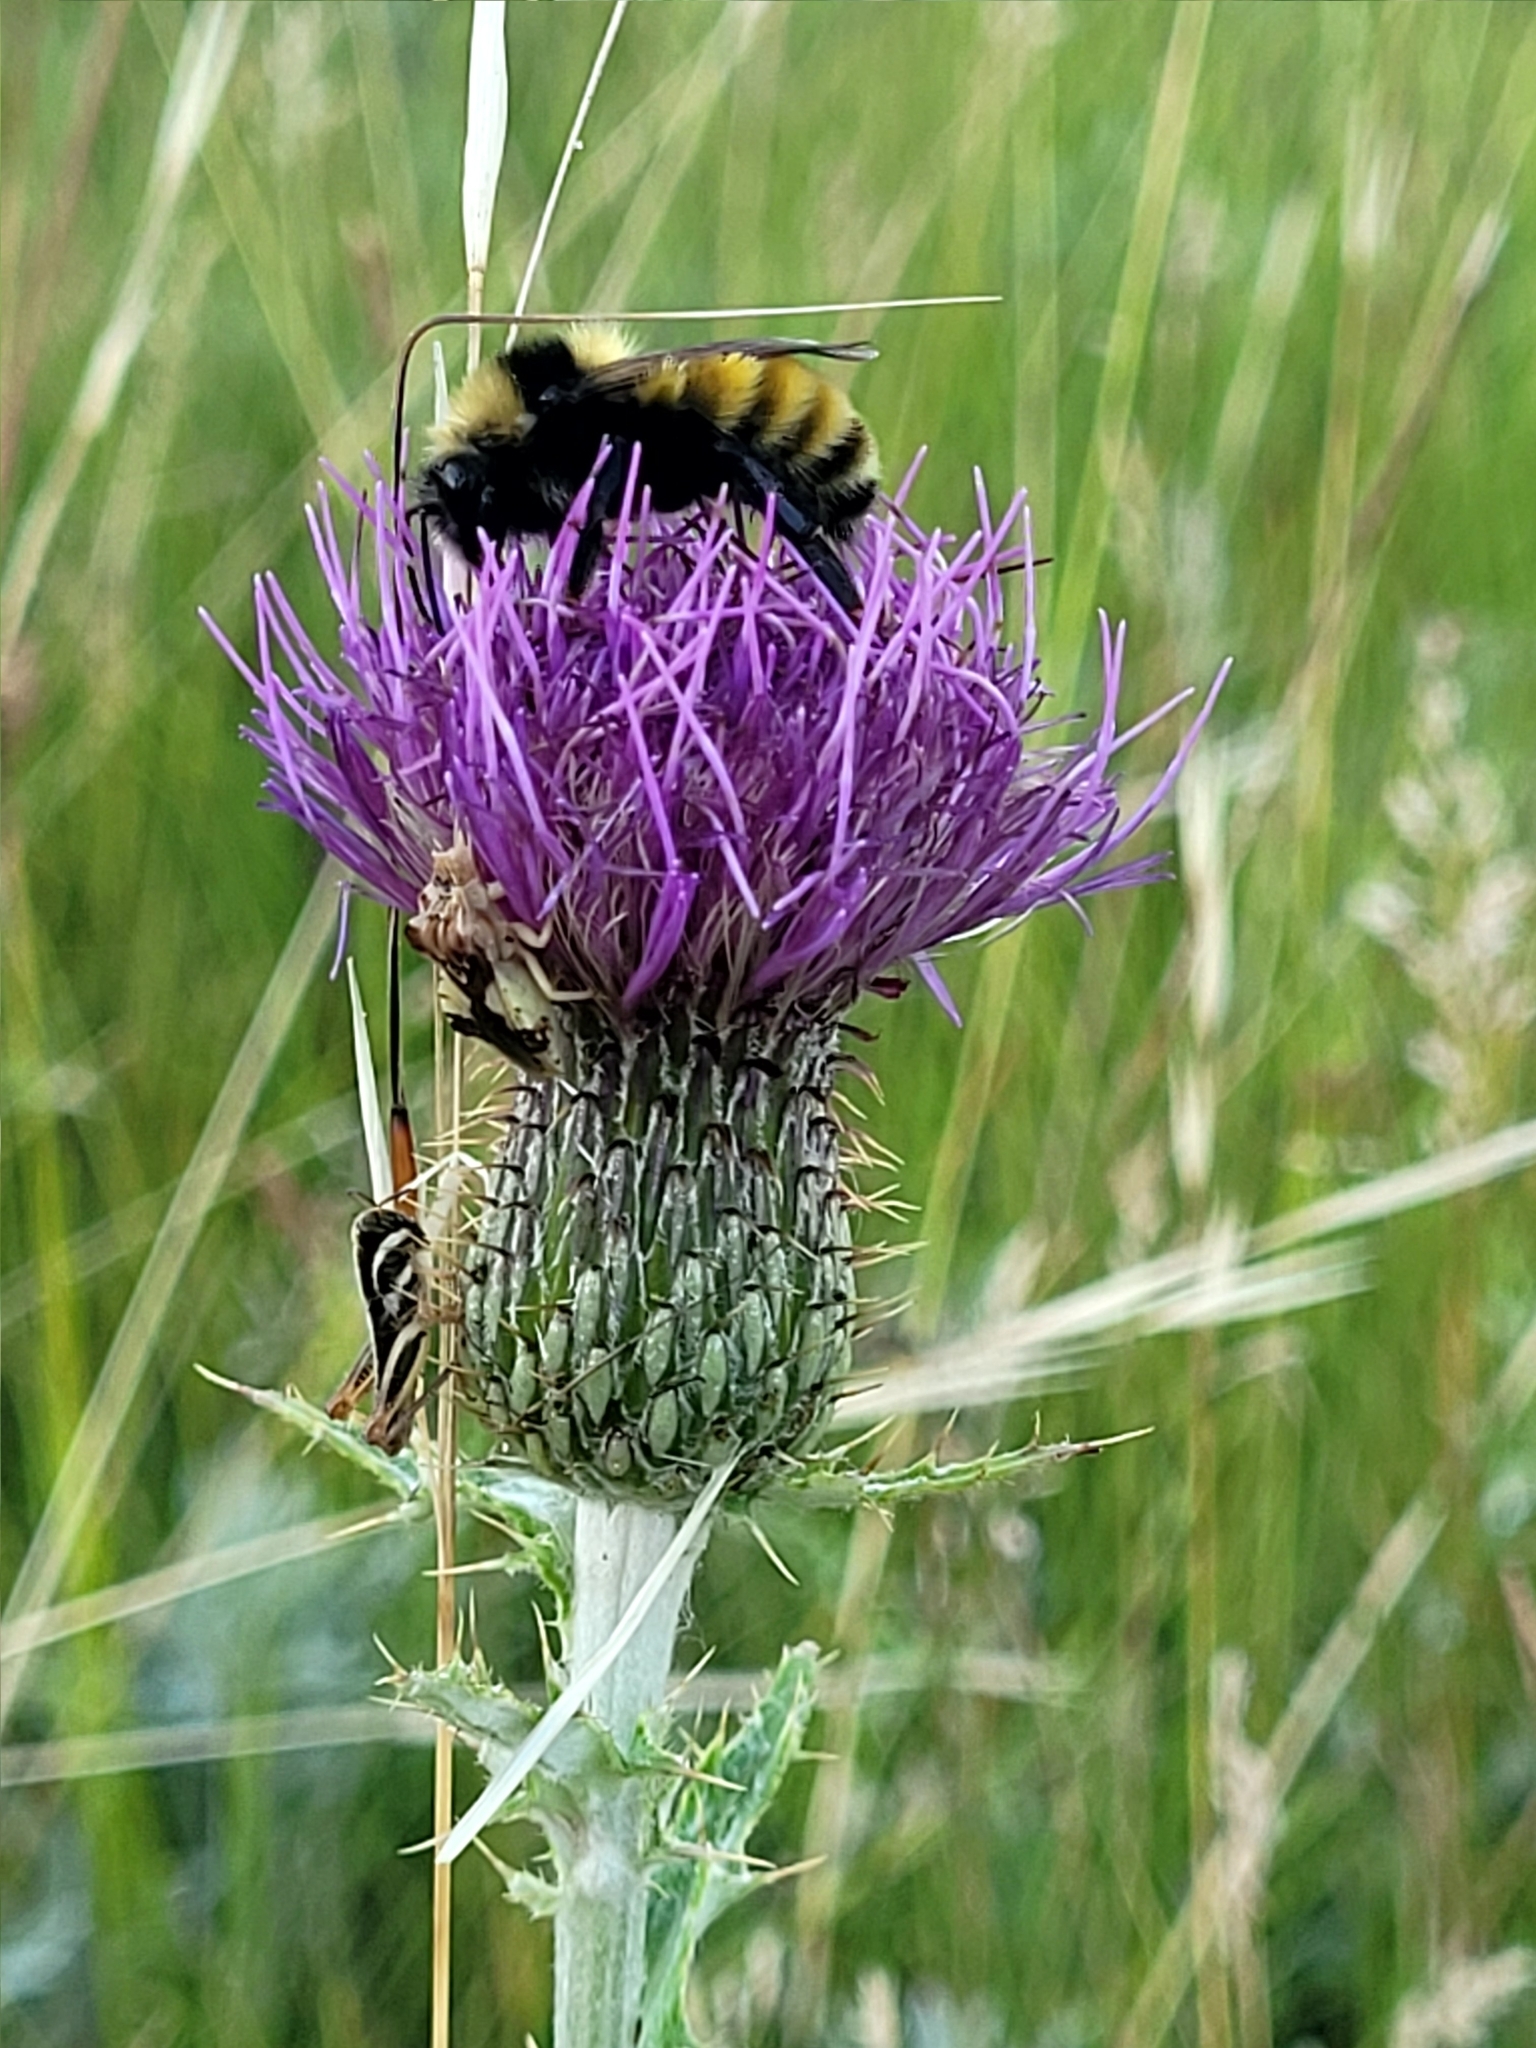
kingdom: Plantae
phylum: Tracheophyta
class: Magnoliopsida
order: Asterales
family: Asteraceae
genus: Cirsium
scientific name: Cirsium flodmanii
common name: Flodman's thistle
